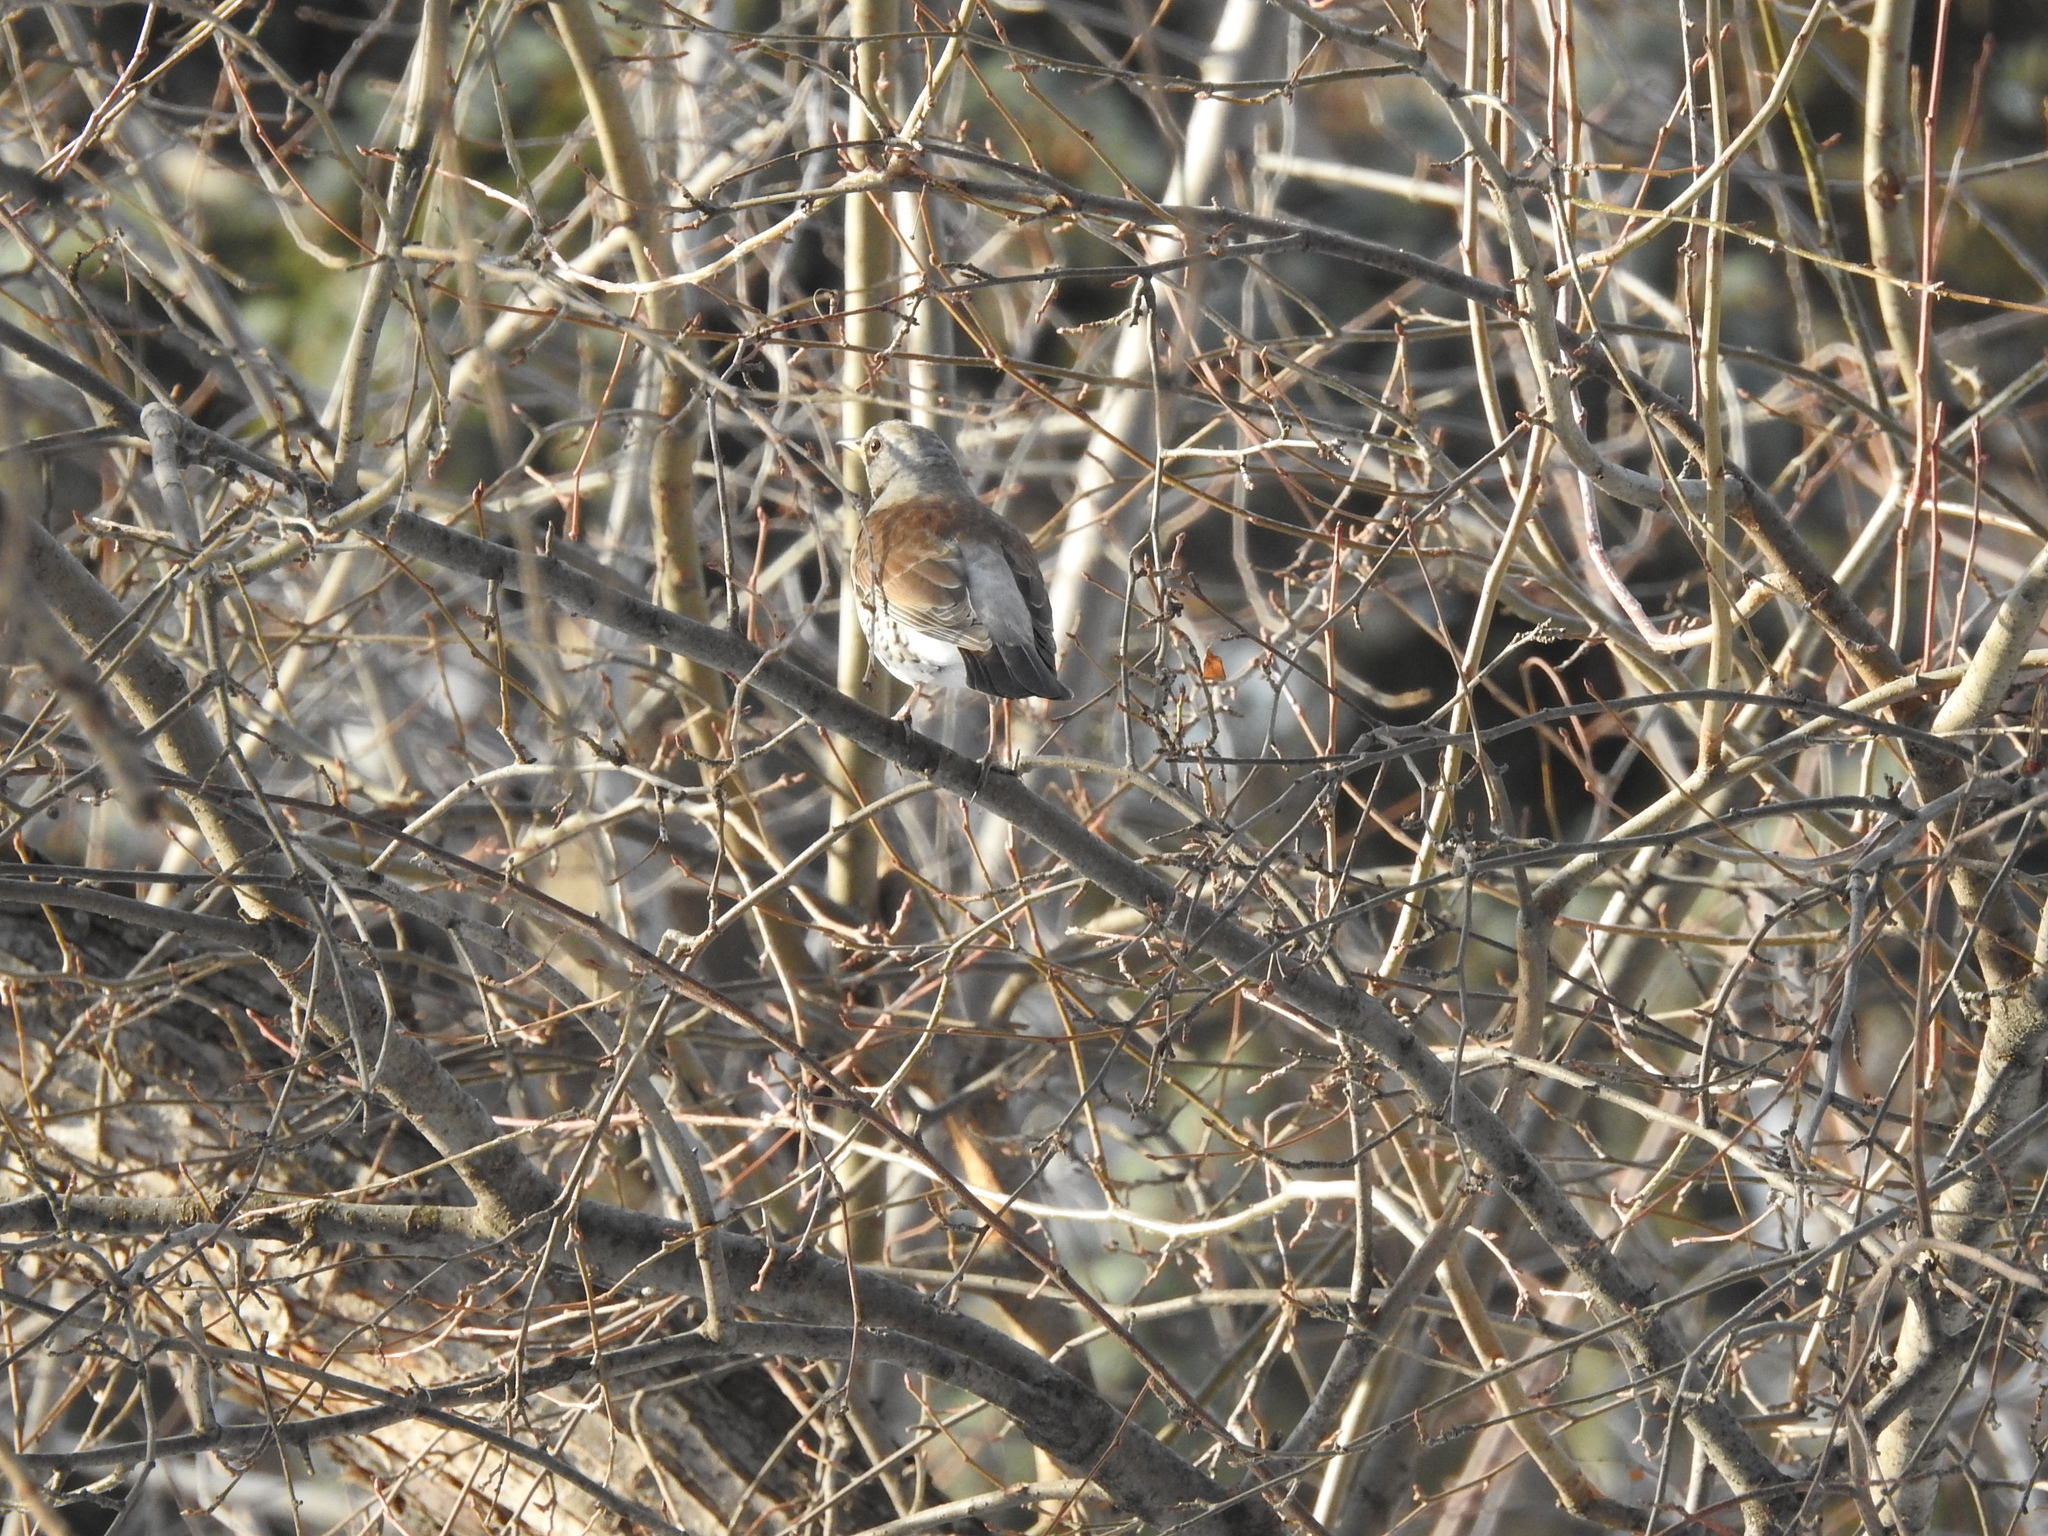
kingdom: Animalia
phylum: Chordata
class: Aves
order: Passeriformes
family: Turdidae
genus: Turdus
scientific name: Turdus pilaris
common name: Fieldfare
